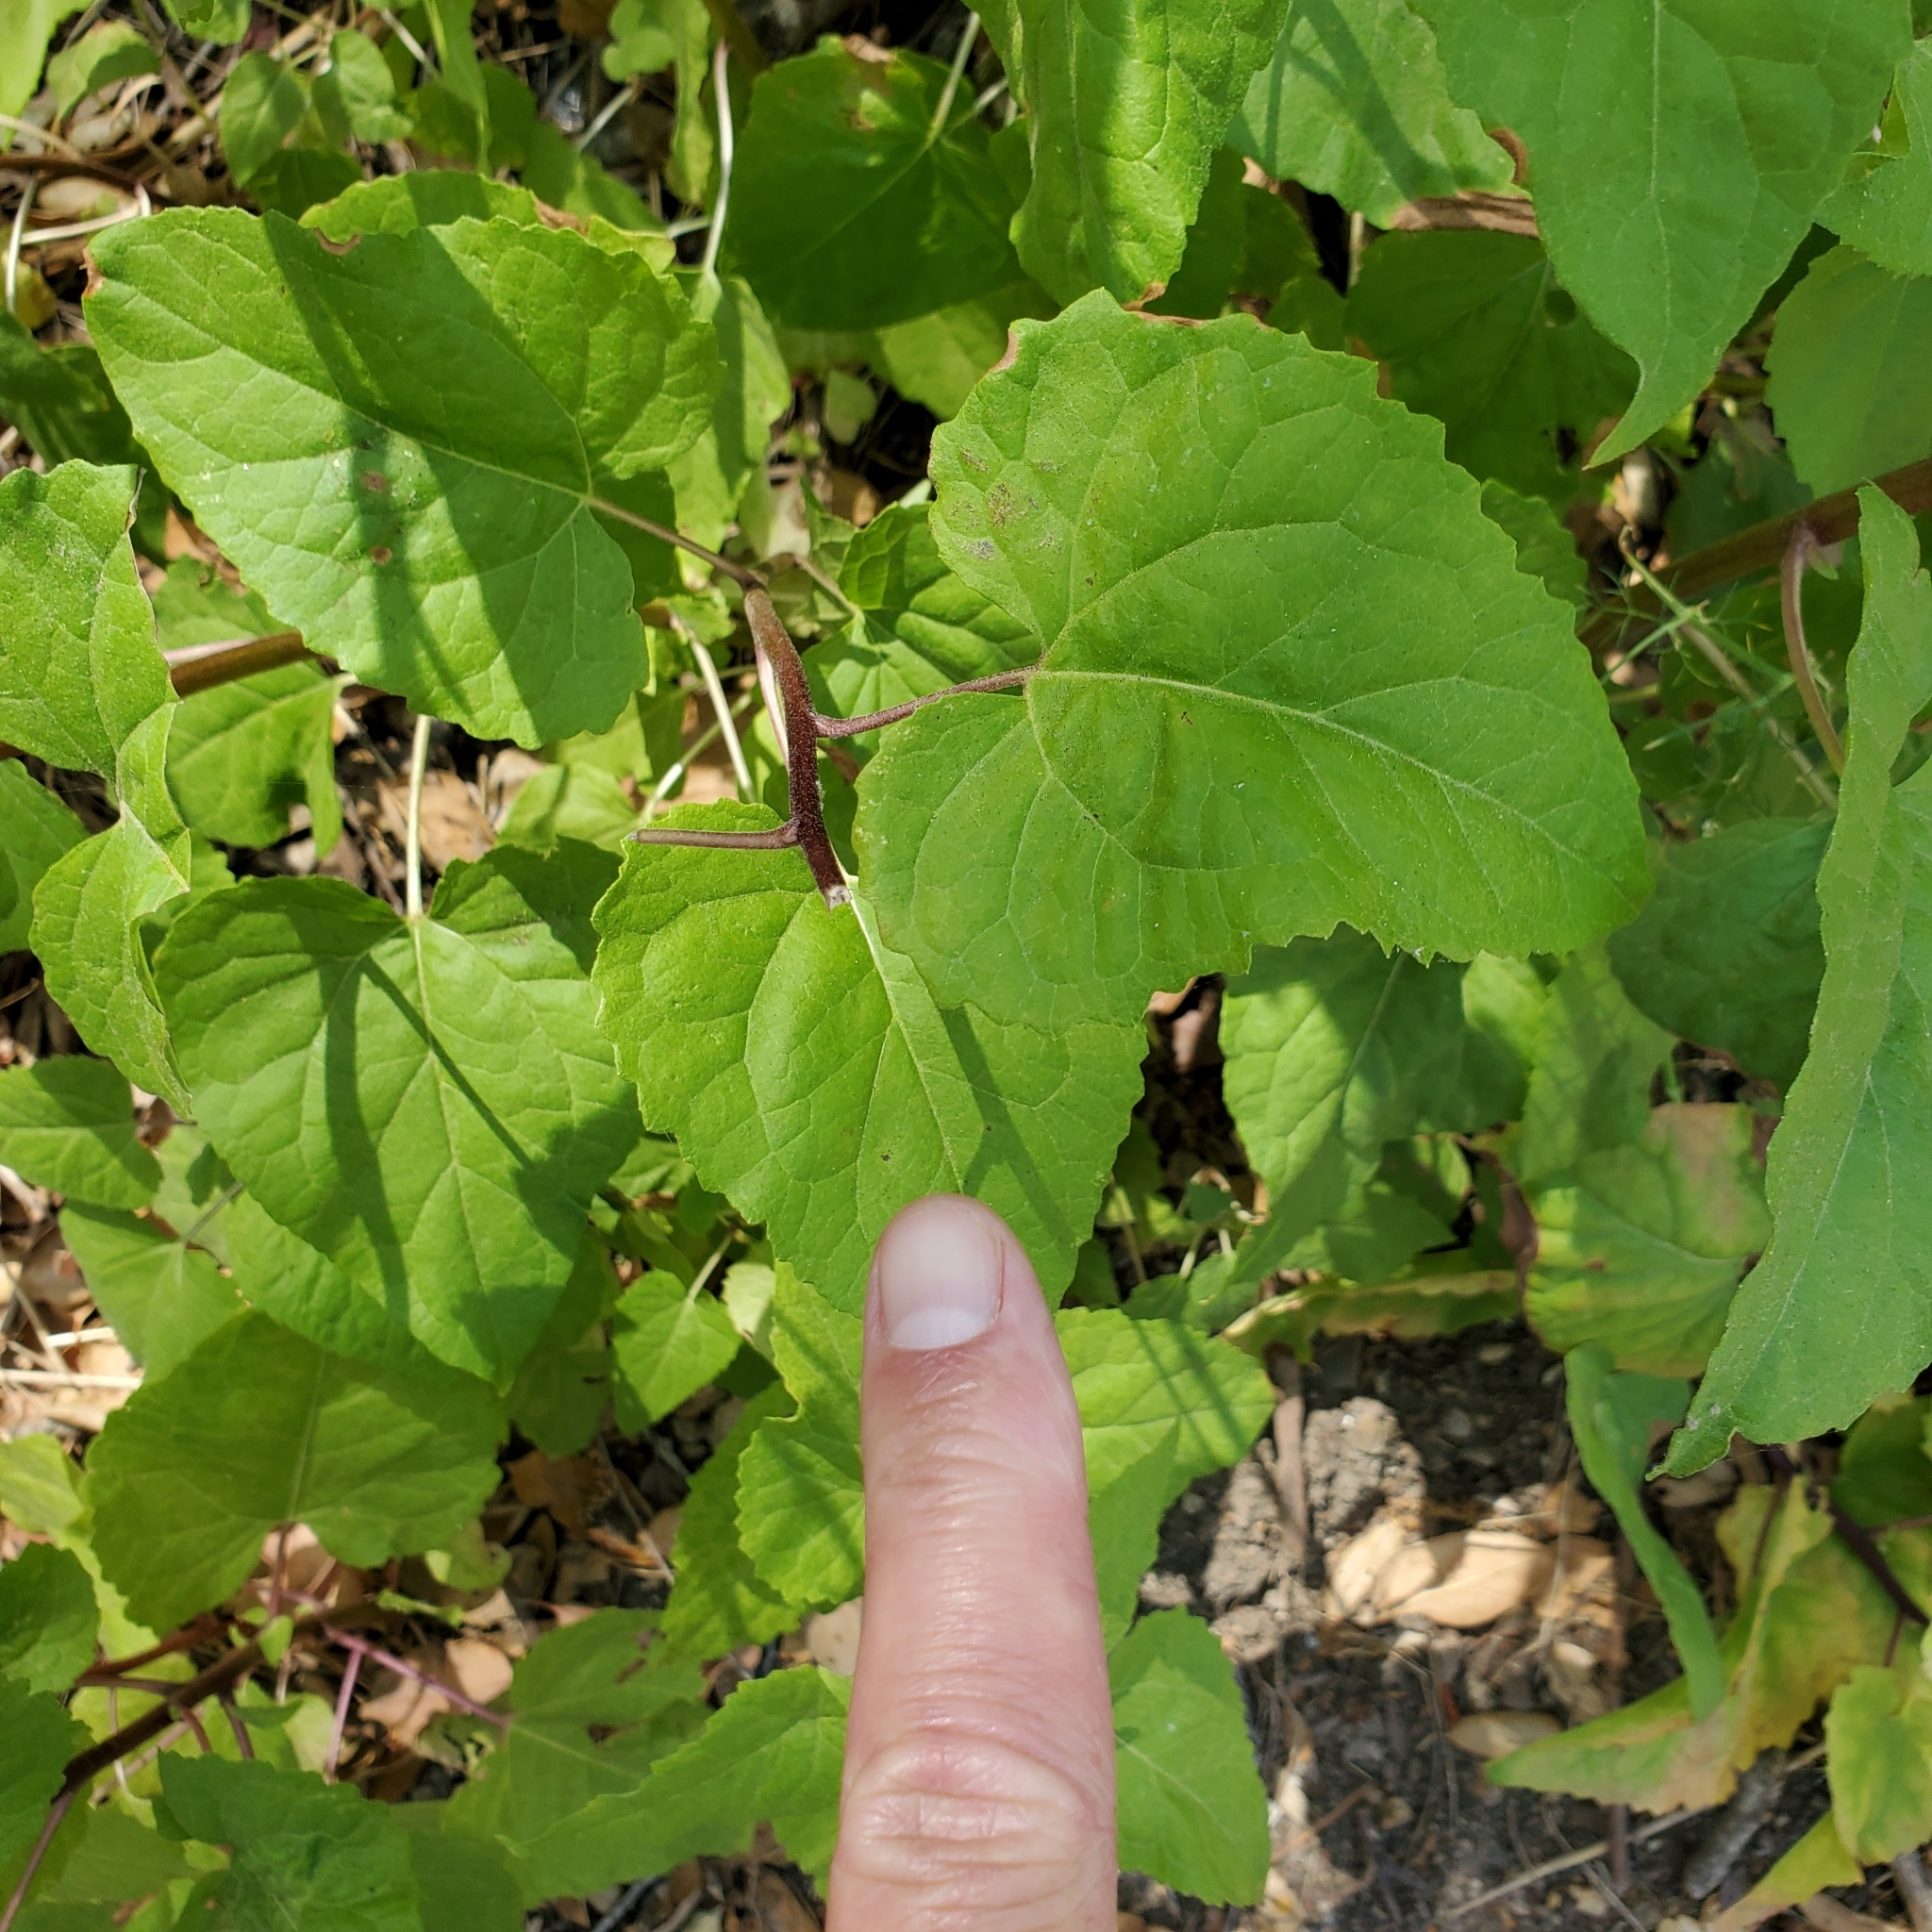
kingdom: Plantae
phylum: Tracheophyta
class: Magnoliopsida
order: Asterales
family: Asteraceae
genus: Venegasia
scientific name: Venegasia carpesioides
